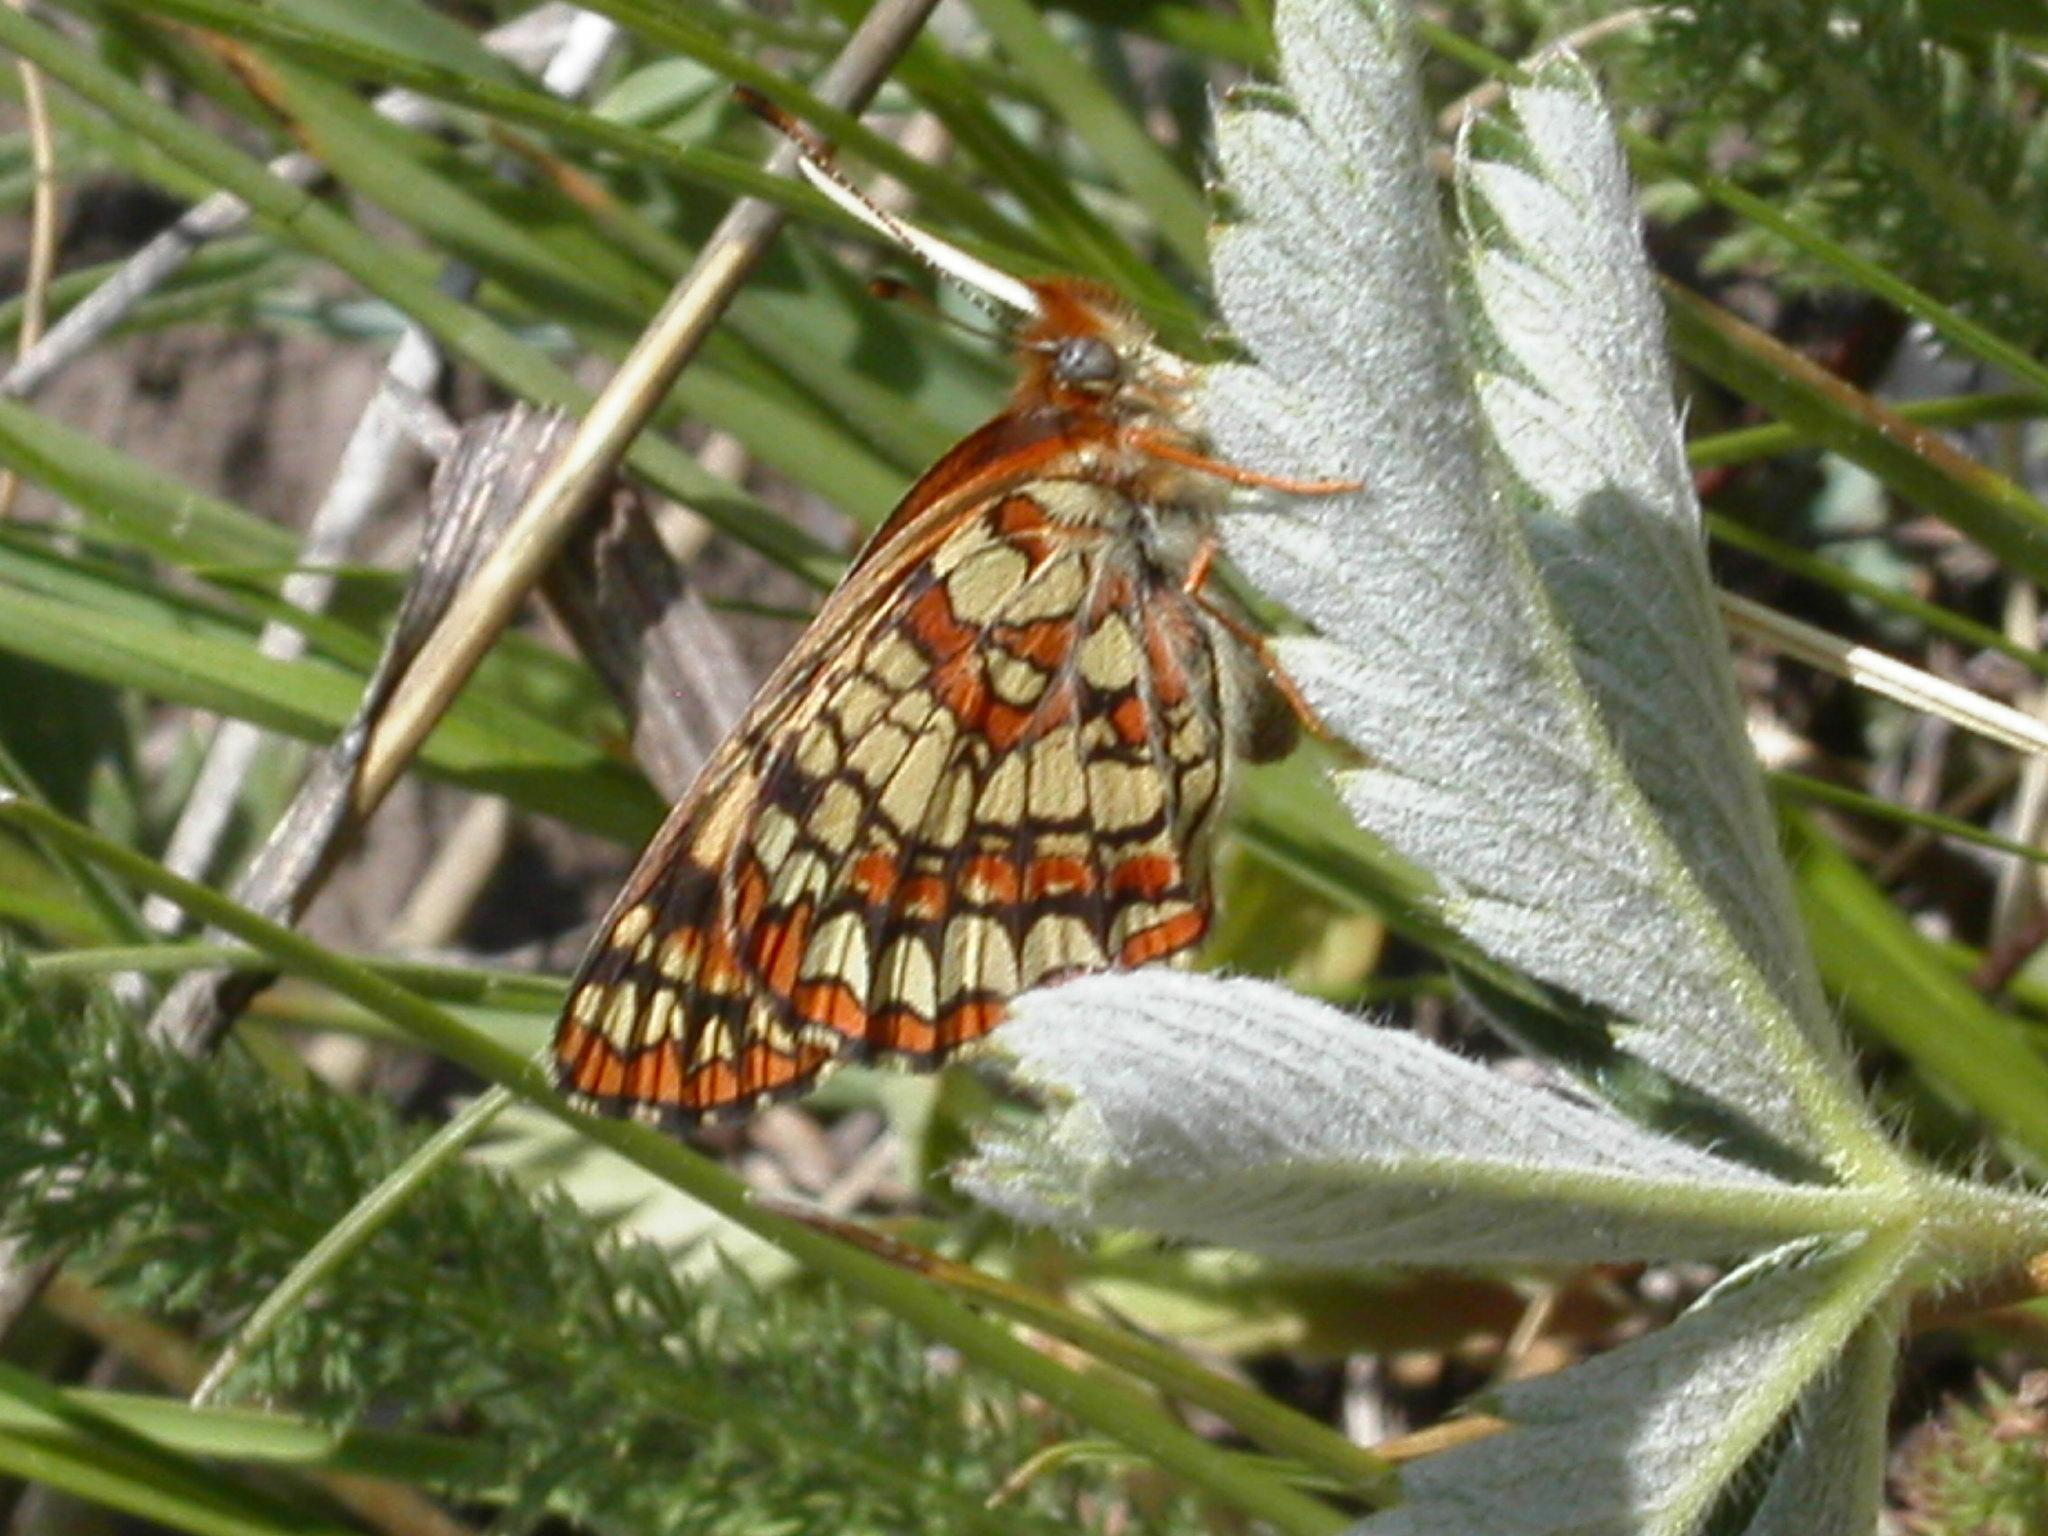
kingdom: Animalia
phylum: Arthropoda
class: Insecta
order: Lepidoptera
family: Nymphalidae
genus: Chlosyne
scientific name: Chlosyne palla
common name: Northern checkerspot
